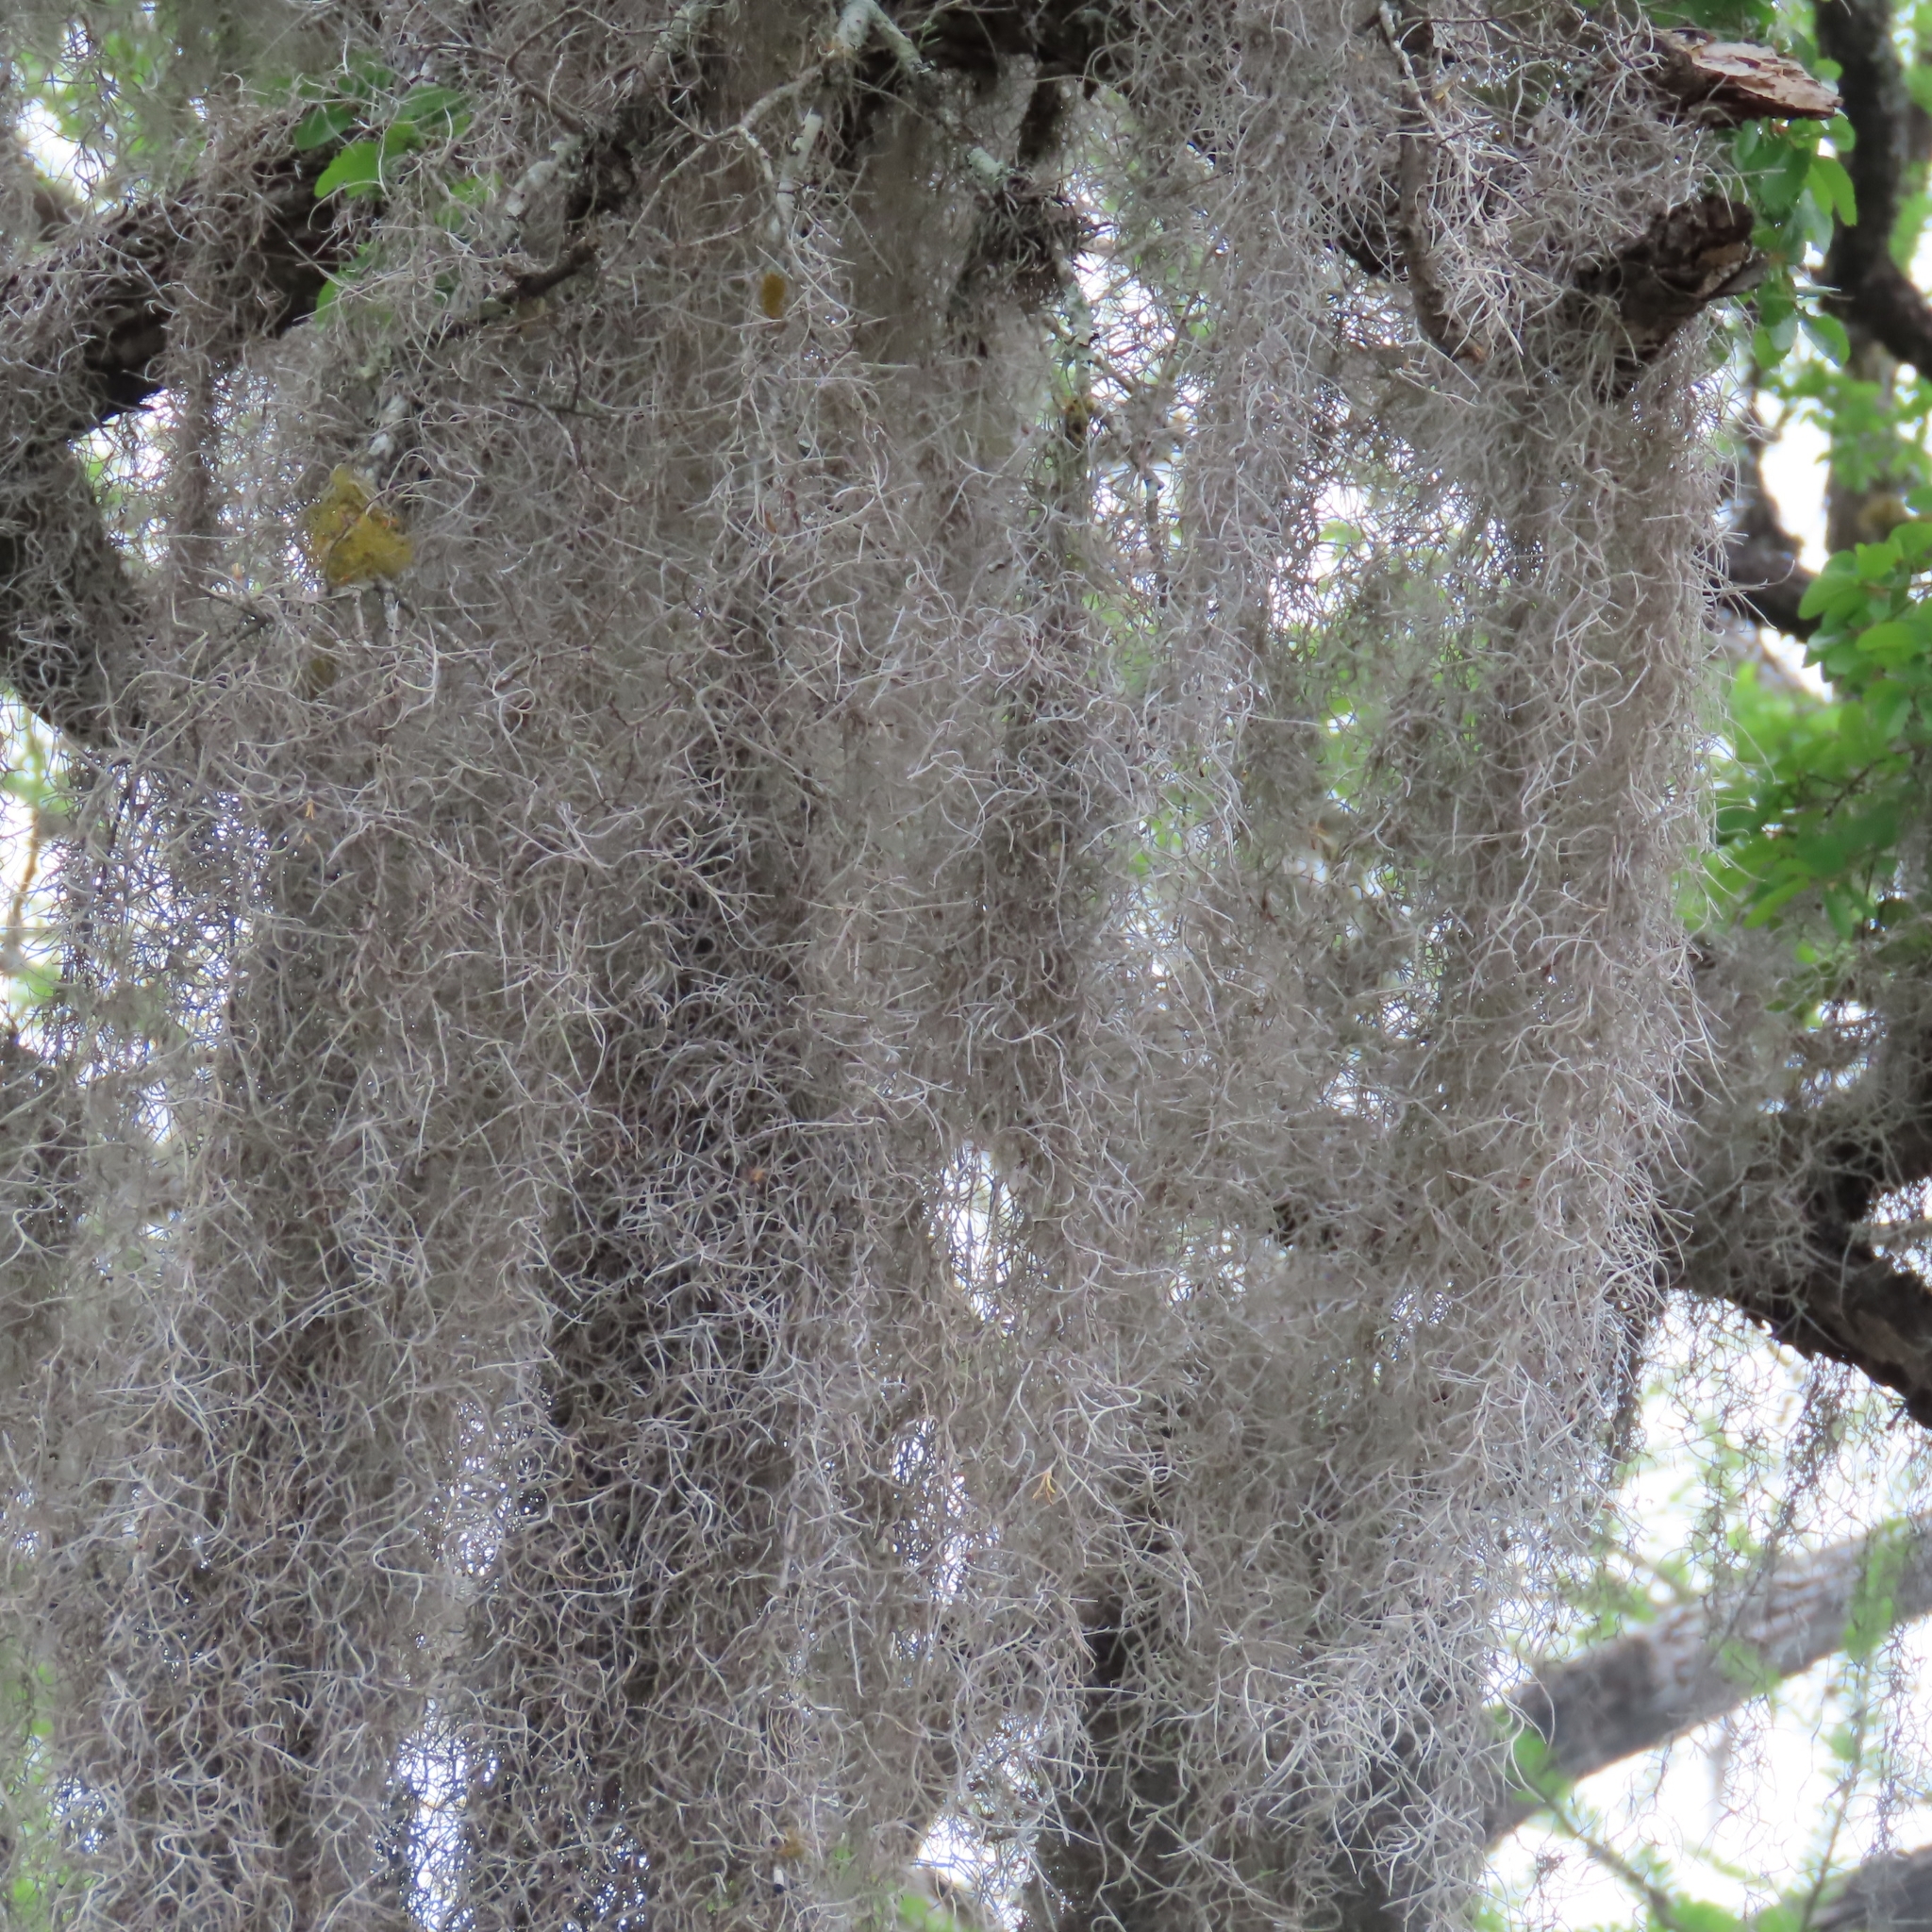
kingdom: Plantae
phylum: Tracheophyta
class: Liliopsida
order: Poales
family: Bromeliaceae
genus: Tillandsia
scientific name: Tillandsia usneoides
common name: Spanish moss
